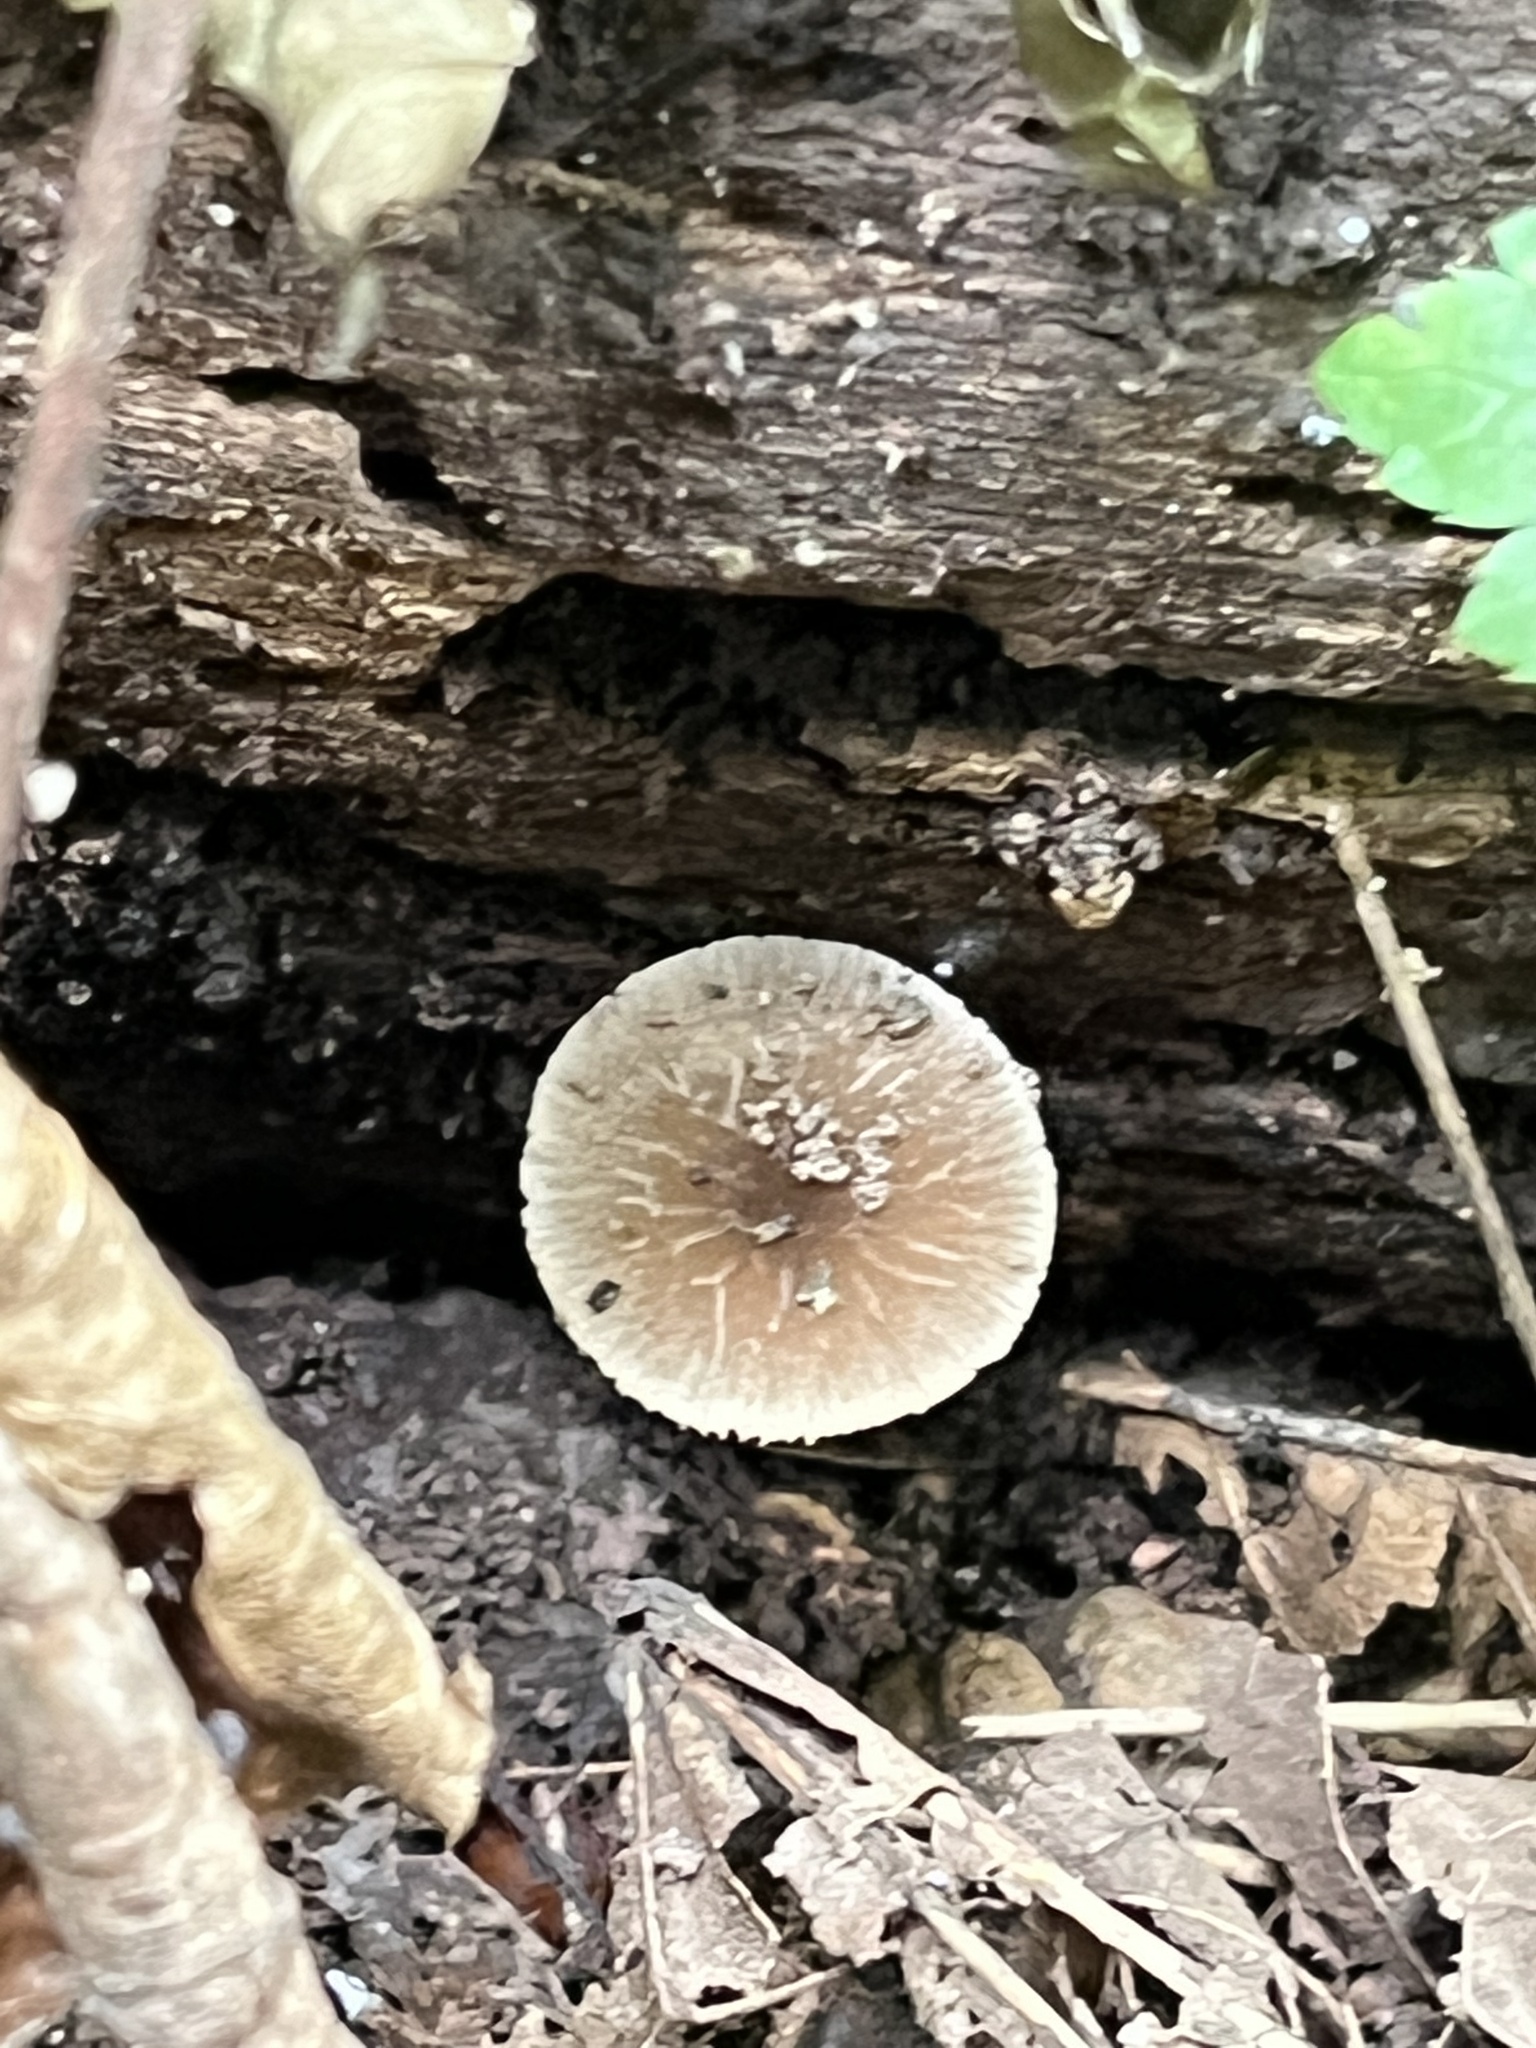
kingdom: Fungi
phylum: Basidiomycota
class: Agaricomycetes
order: Agaricales
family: Pluteaceae
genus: Pluteus
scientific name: Pluteus thomsonii
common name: Veined shield
